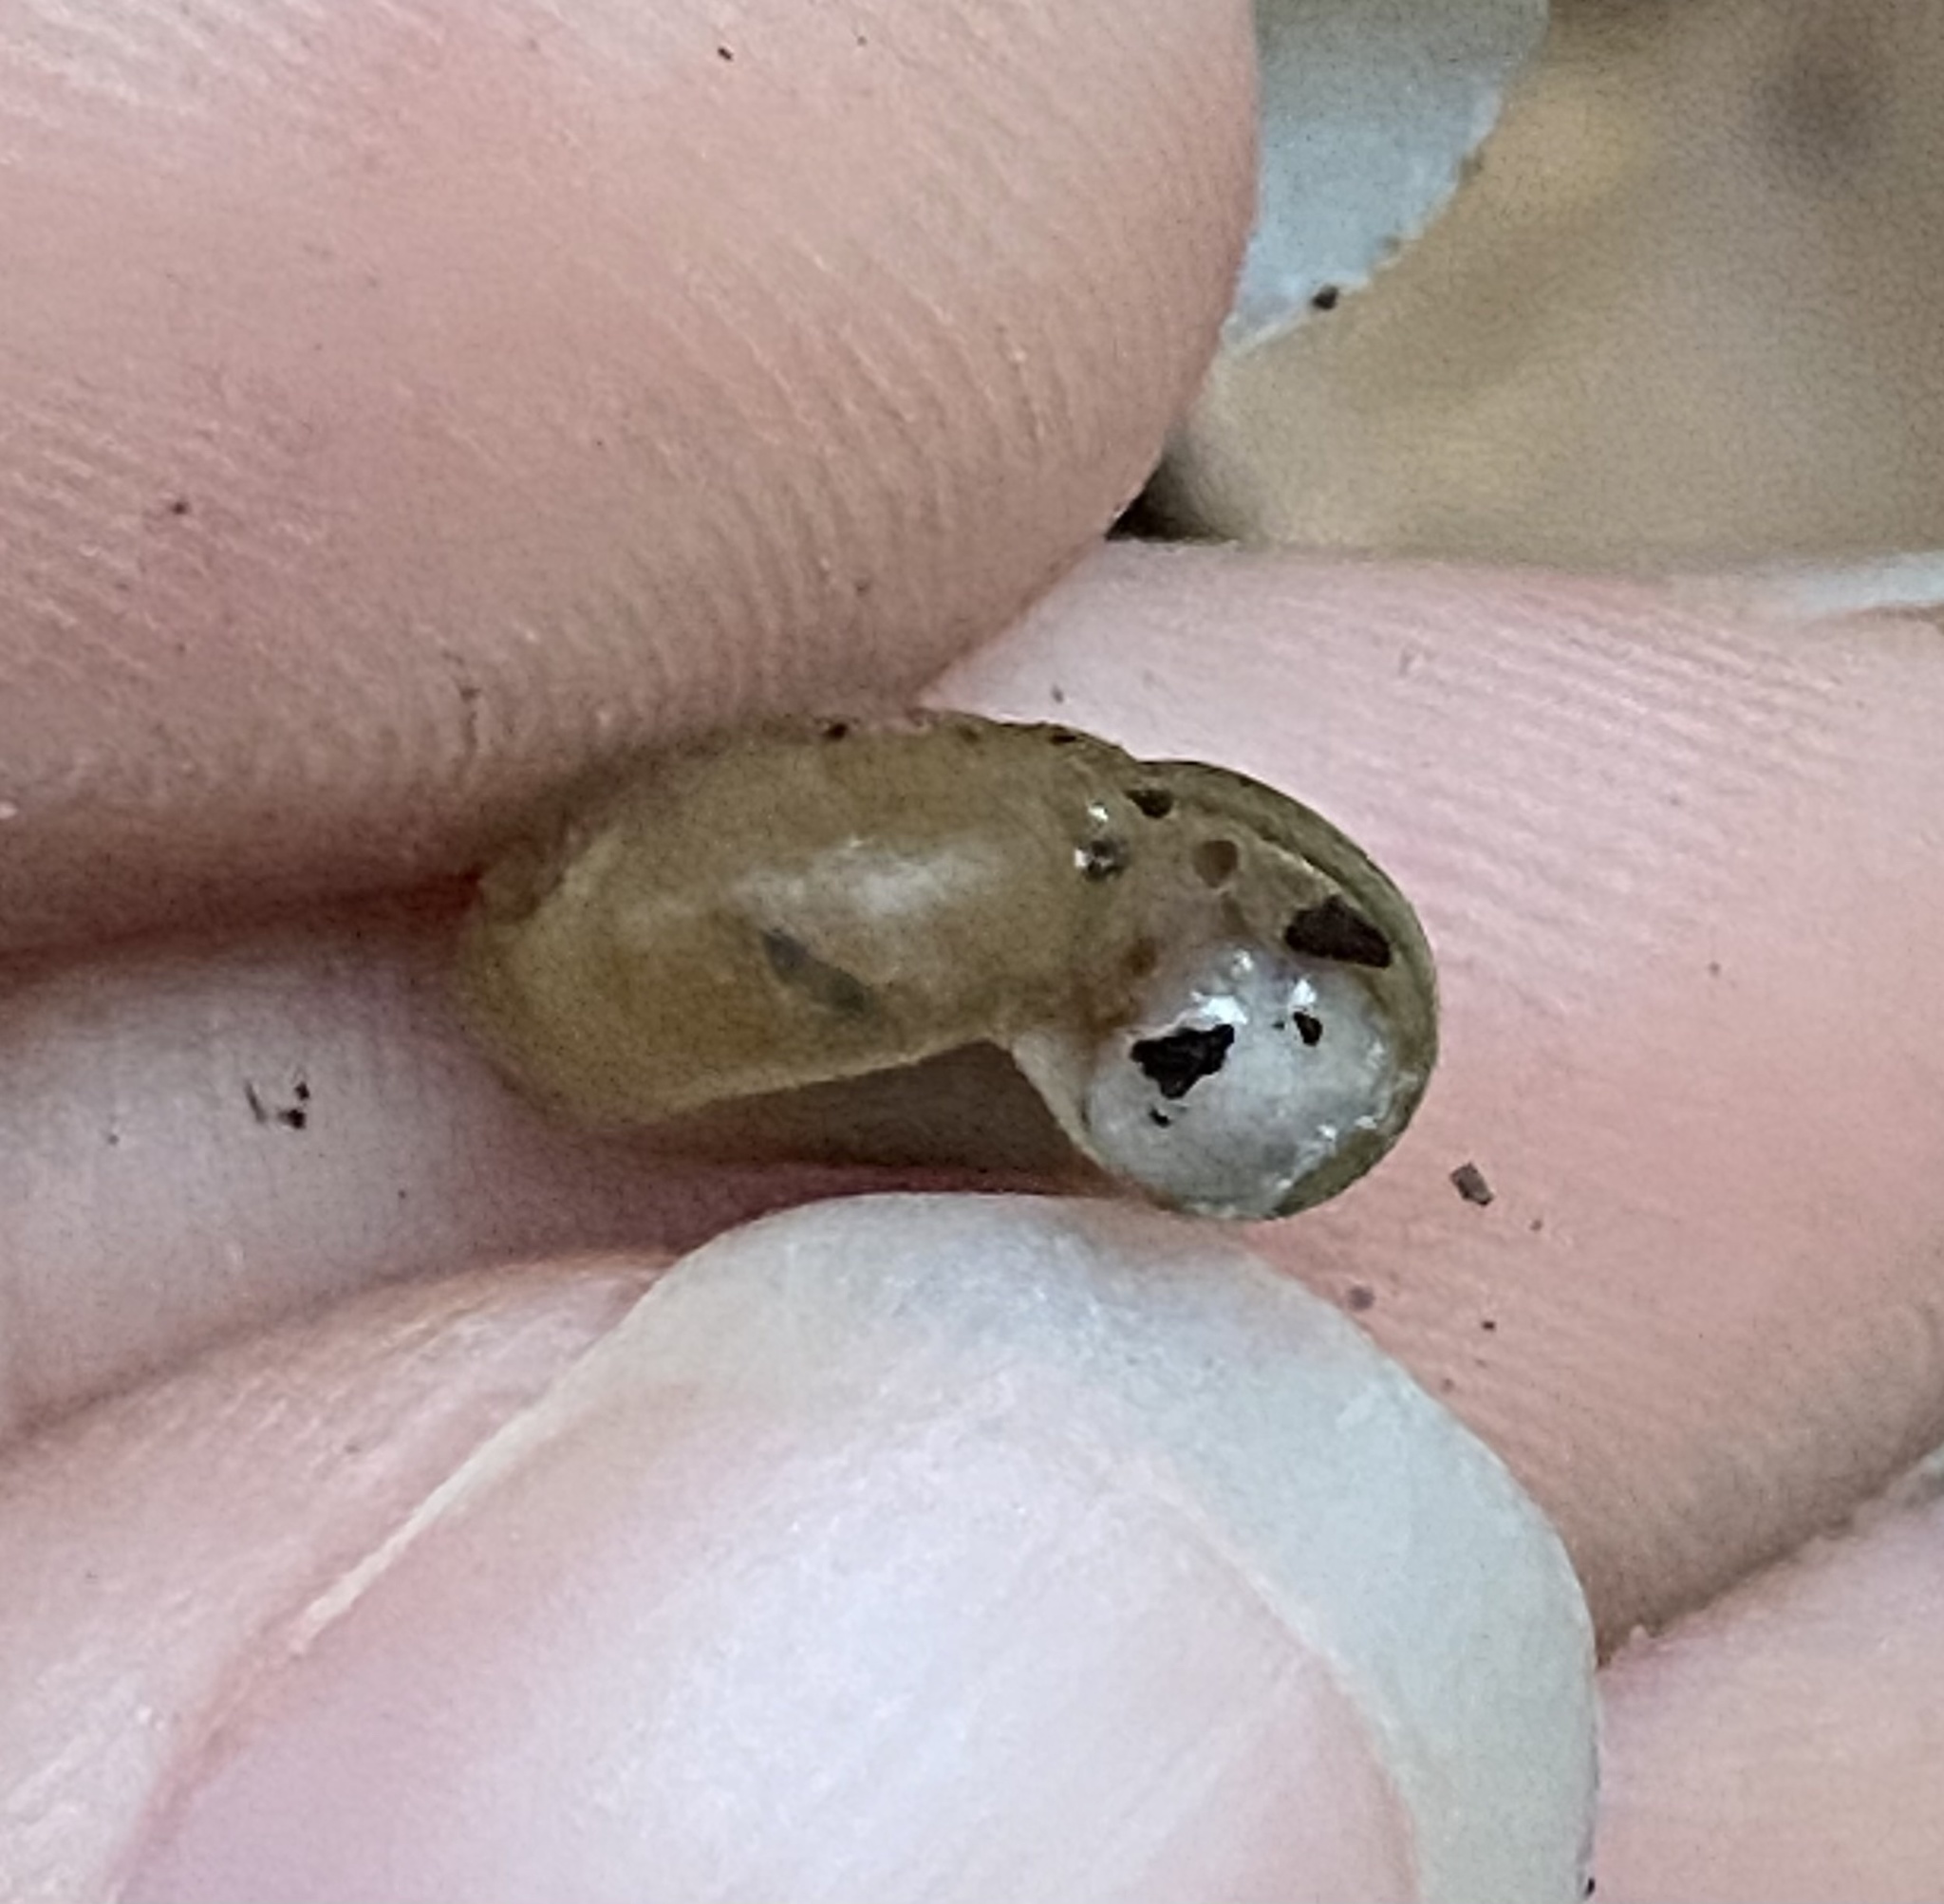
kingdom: Animalia
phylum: Mollusca
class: Gastropoda
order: Stylommatophora
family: Haplotrematidae
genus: Haplotrema
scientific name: Haplotrema concavum
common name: Gray-foot lancetooth
